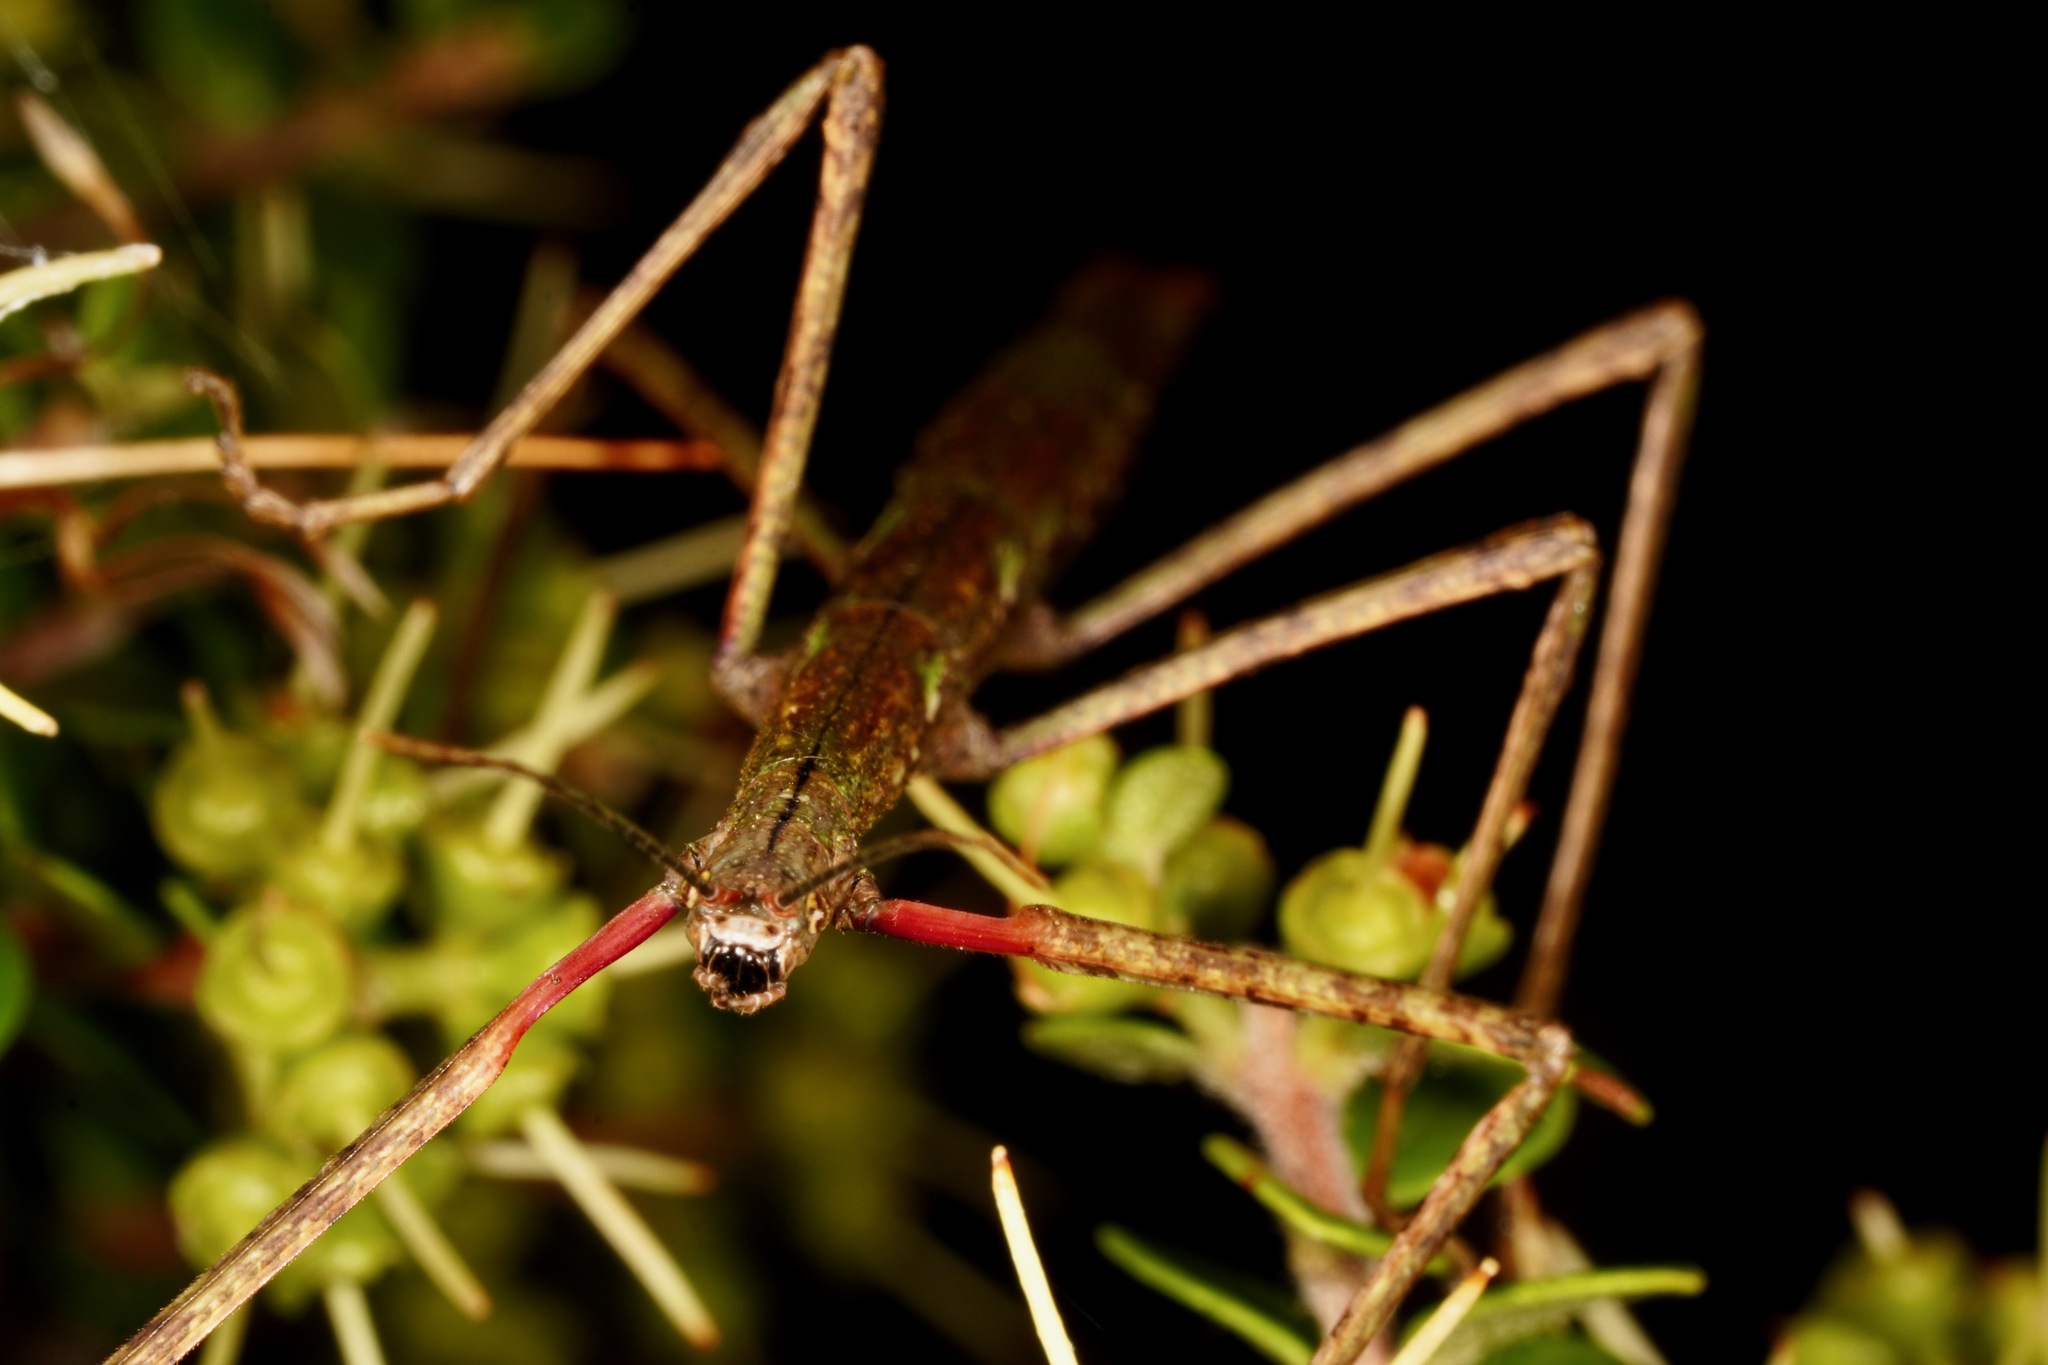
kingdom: Animalia
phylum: Arthropoda
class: Insecta
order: Phasmida
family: Phasmatidae
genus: Clitarchus
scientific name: Clitarchus hookeri
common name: Smooth stick insect
